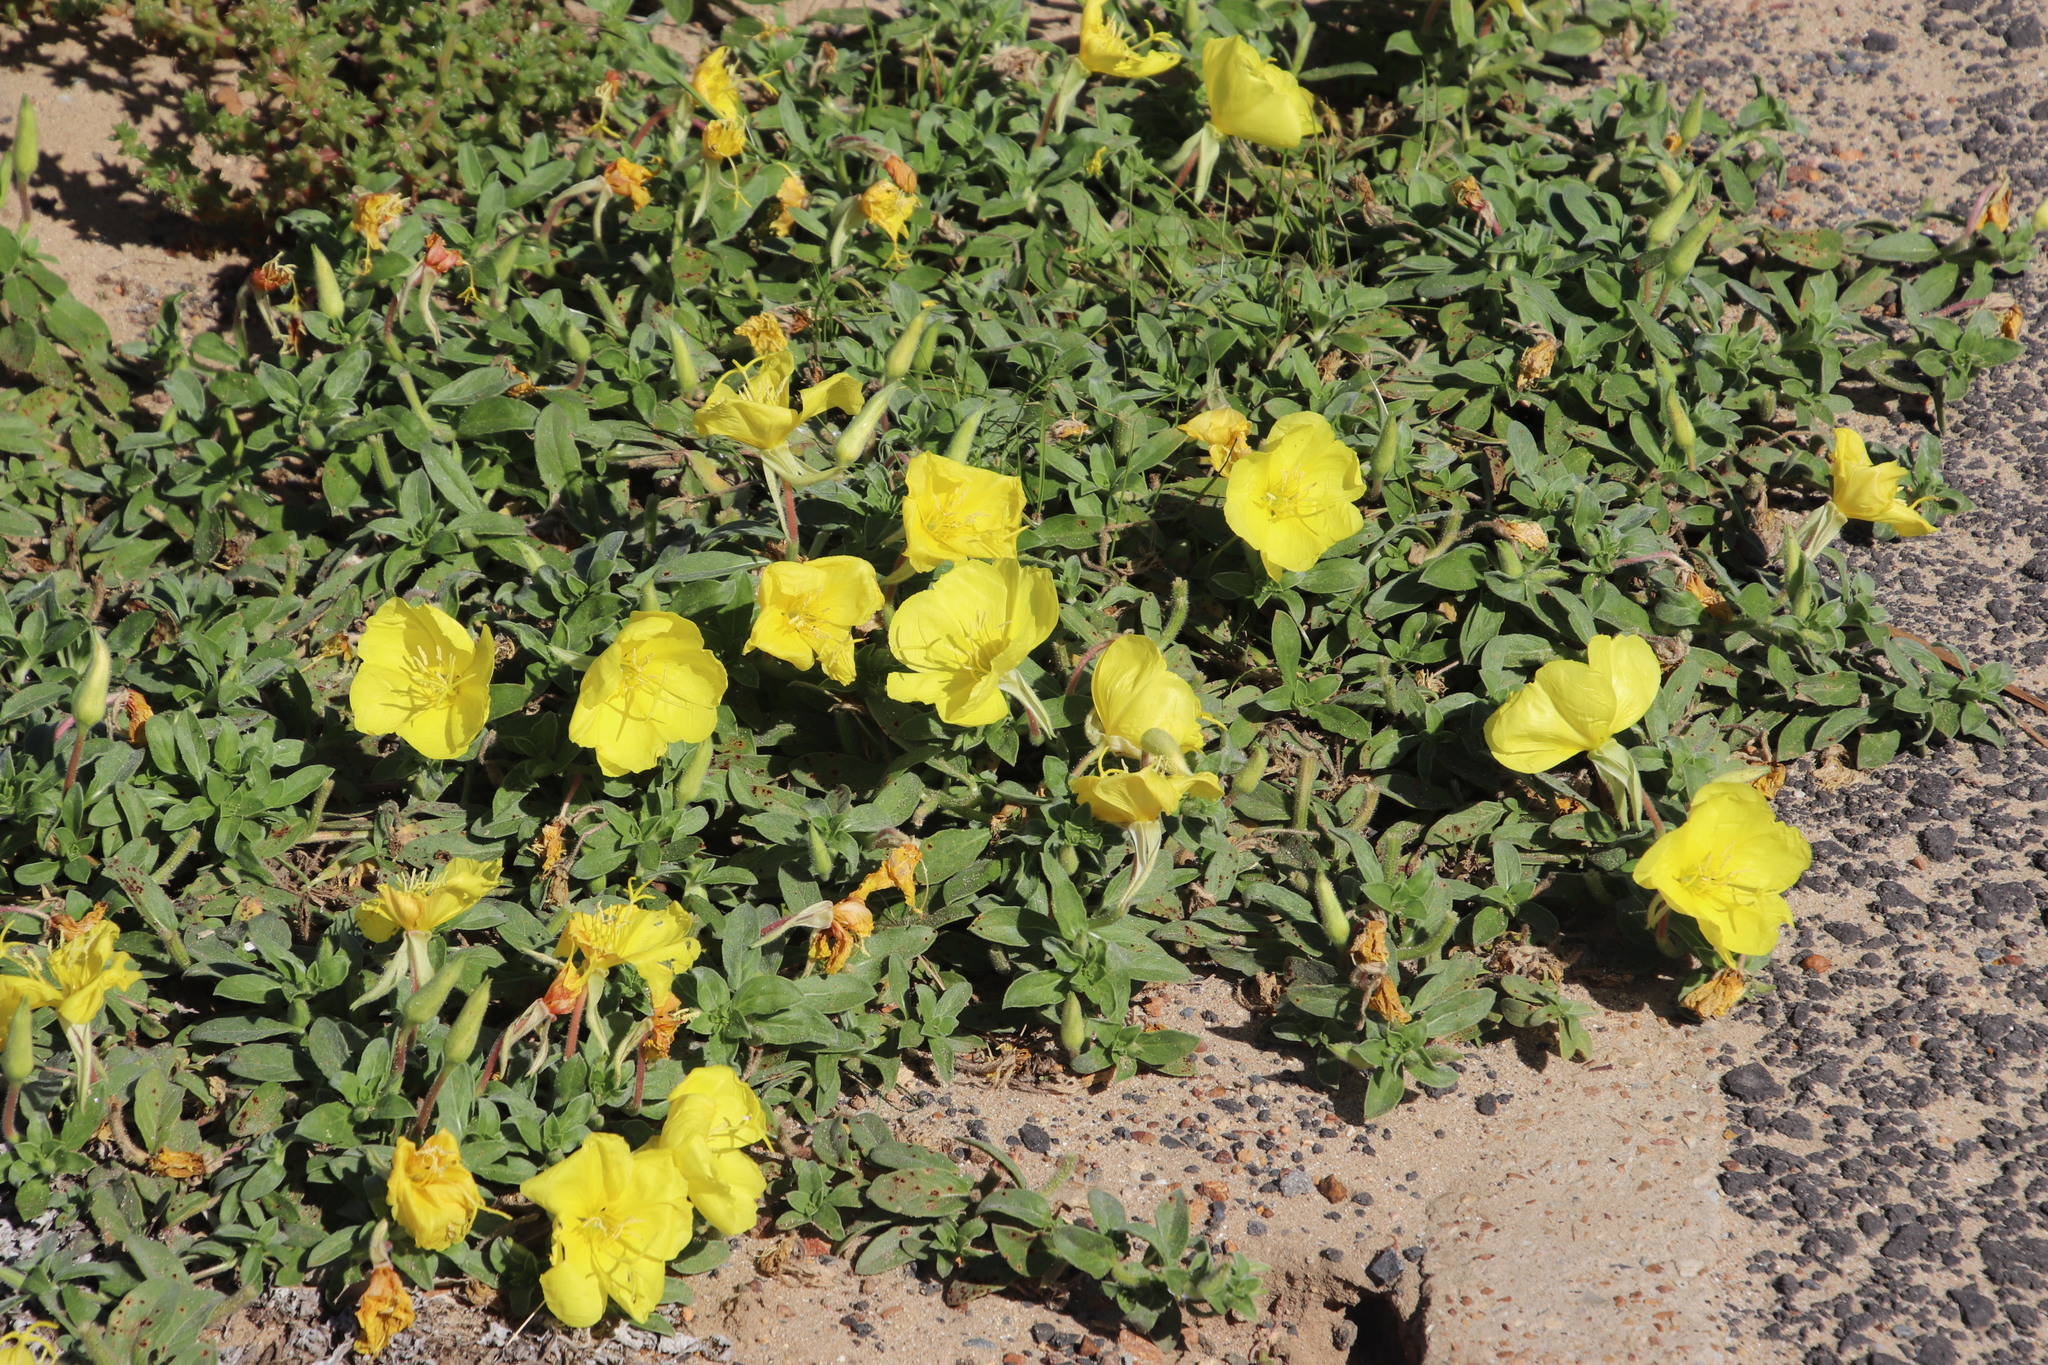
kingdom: Plantae
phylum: Tracheophyta
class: Magnoliopsida
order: Myrtales
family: Onagraceae
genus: Oenothera
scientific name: Oenothera indecora
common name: Small-flower evening-primrose
